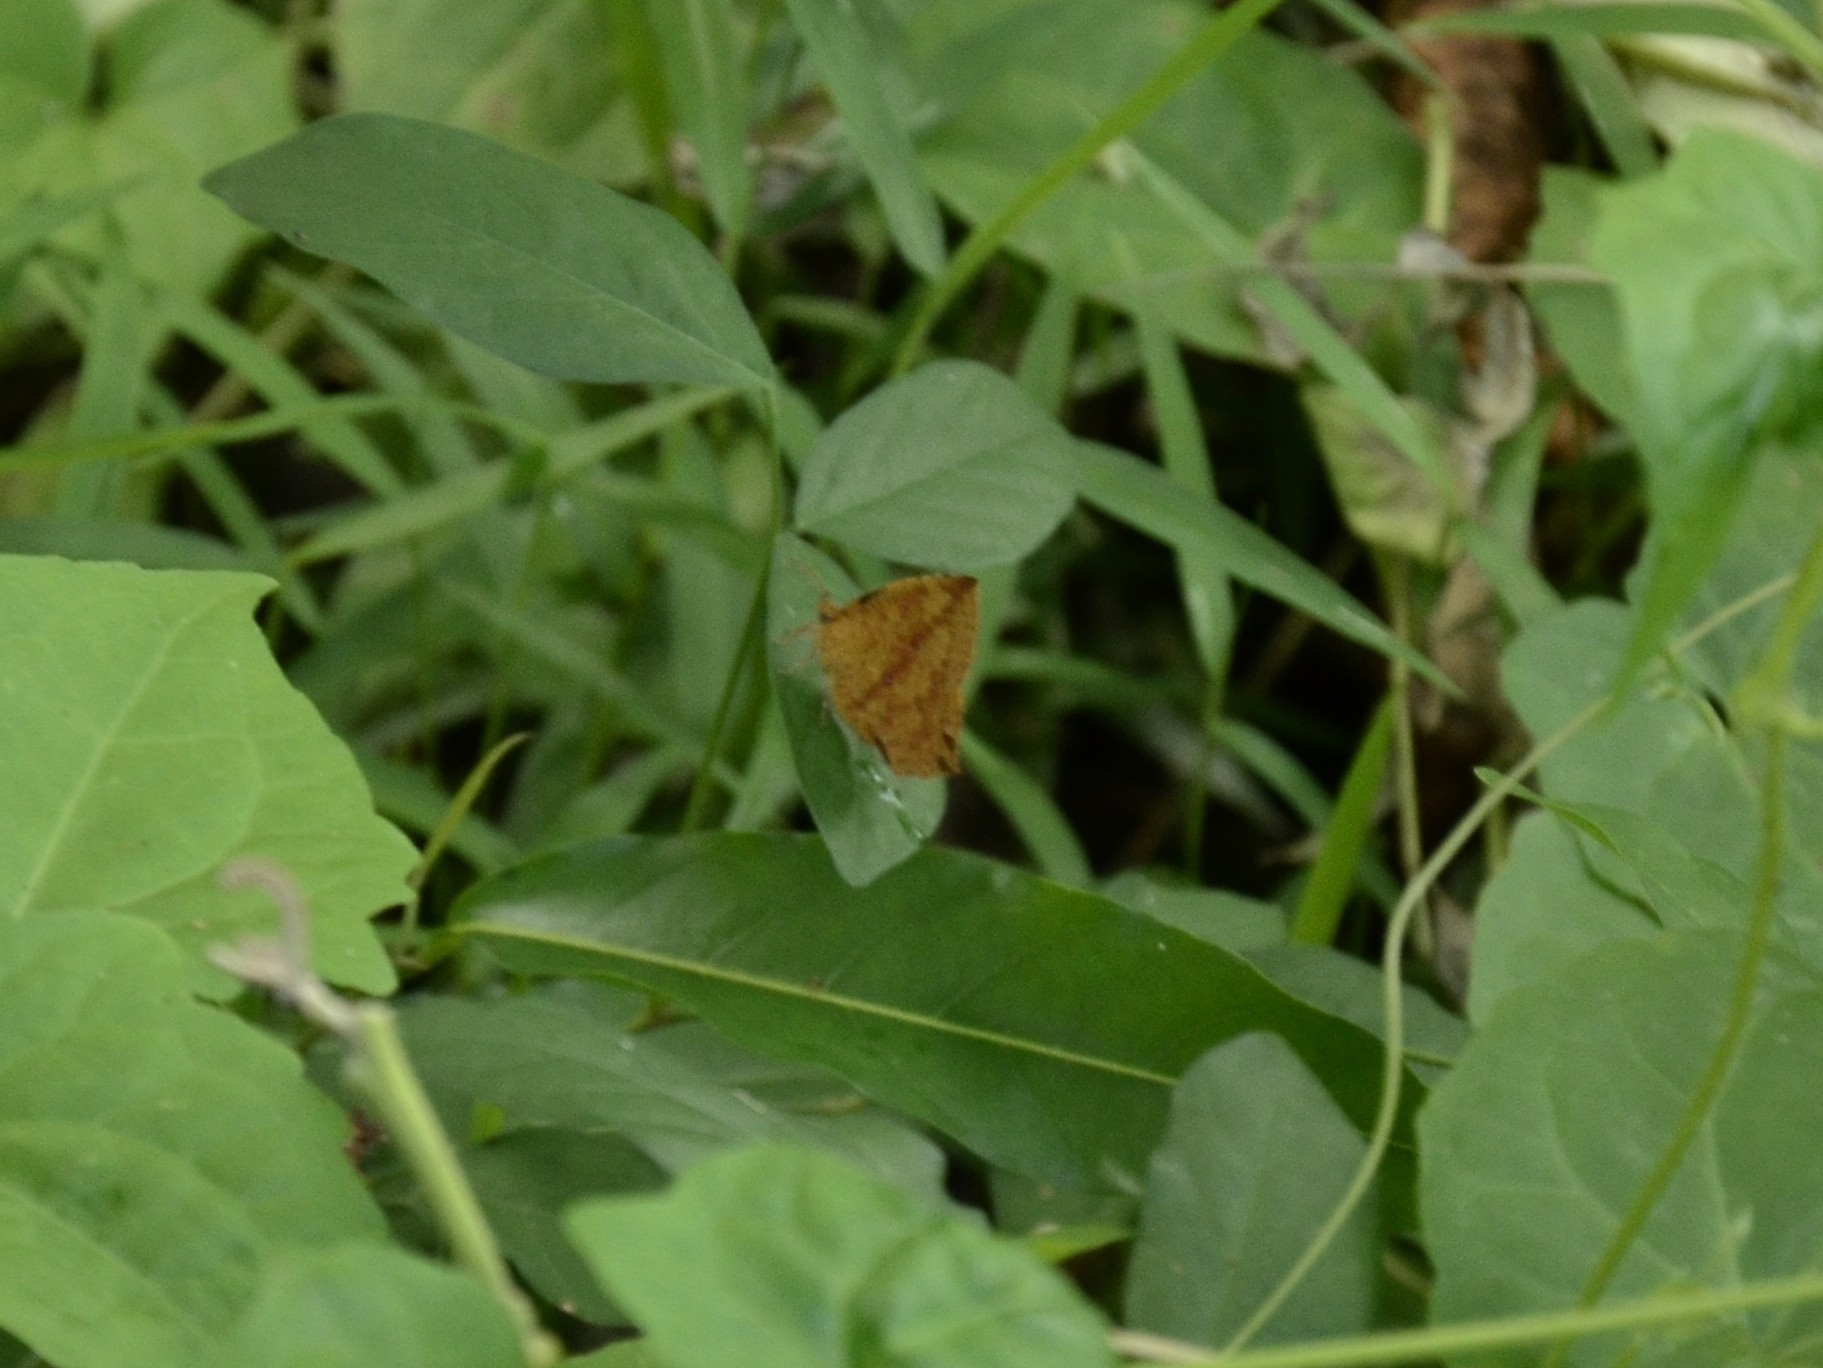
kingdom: Animalia
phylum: Arthropoda
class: Insecta
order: Lepidoptera
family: Callidulidae
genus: Tetragonus
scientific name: Tetragonus catamitus
